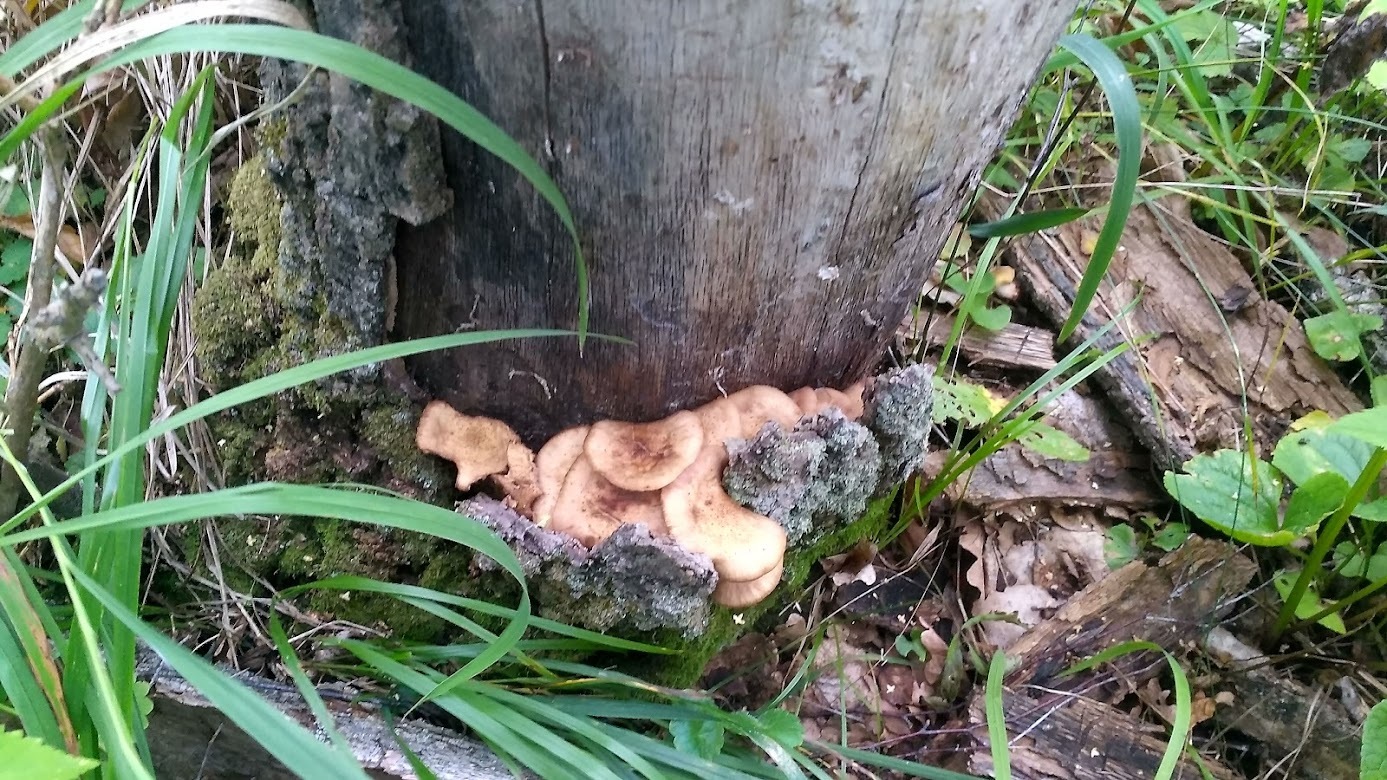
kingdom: Fungi
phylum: Basidiomycota
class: Agaricomycetes
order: Agaricales
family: Physalacriaceae
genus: Armillaria
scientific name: Armillaria borealis
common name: Northern honey fungus
